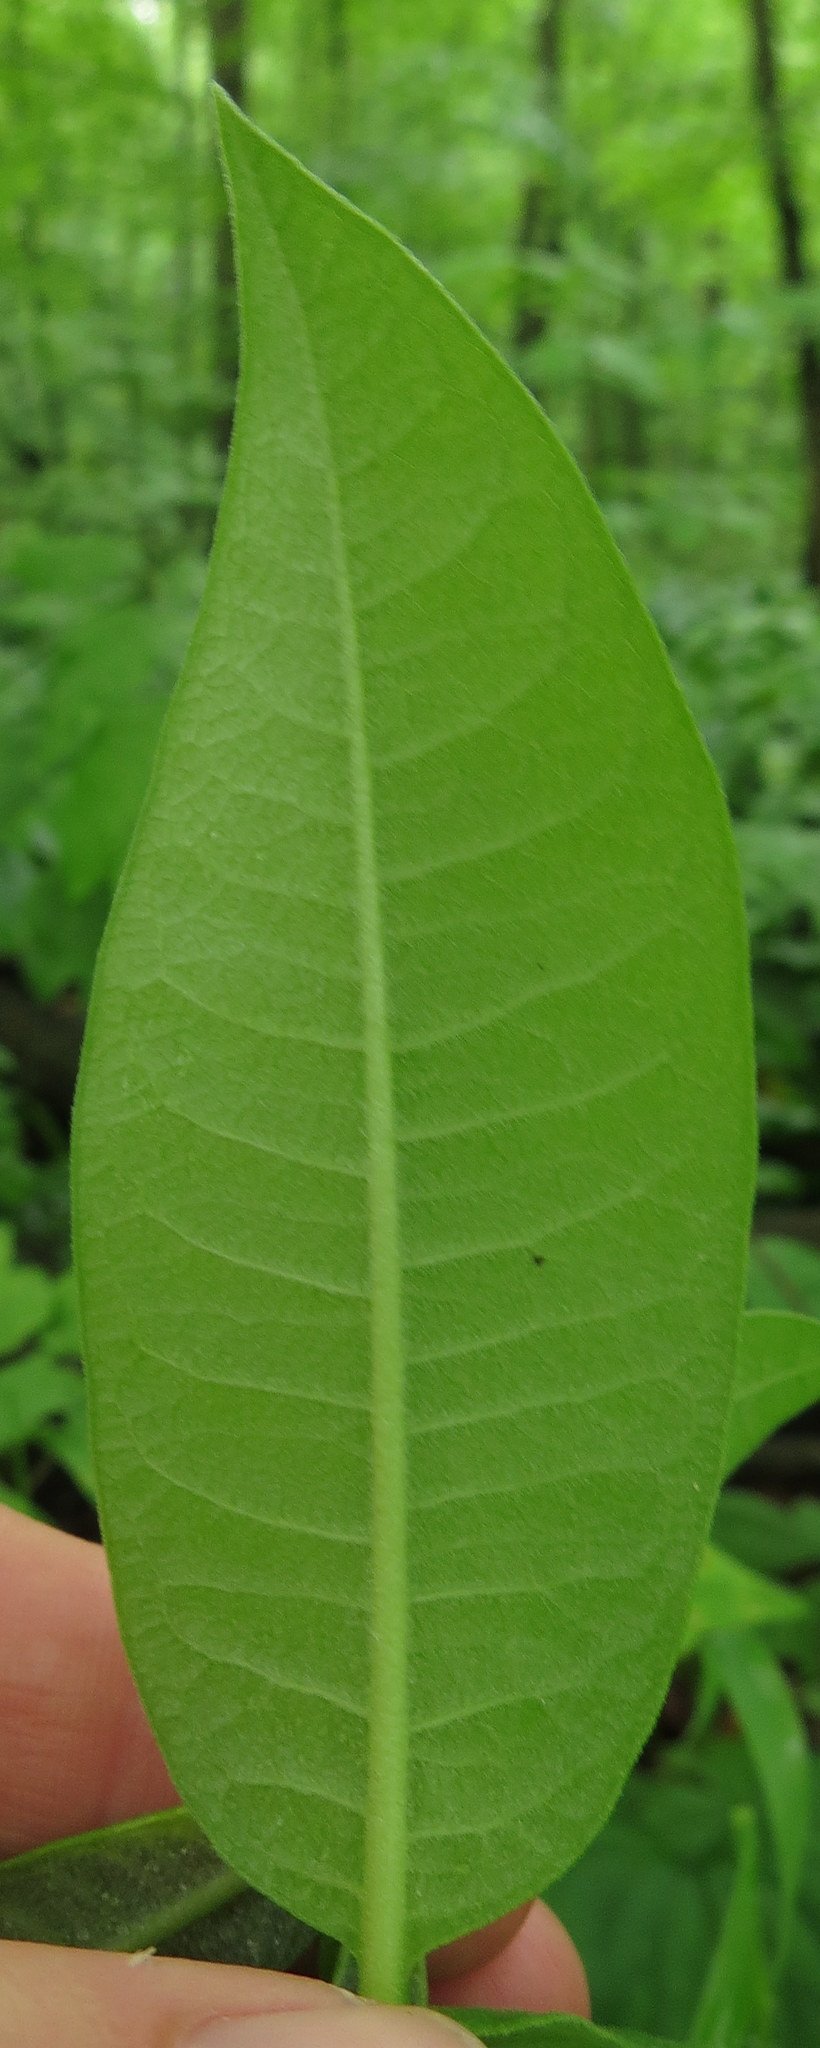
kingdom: Plantae
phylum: Tracheophyta
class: Magnoliopsida
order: Gentianales
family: Apocynaceae
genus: Asclepias
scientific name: Asclepias syriaca
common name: Common milkweed
